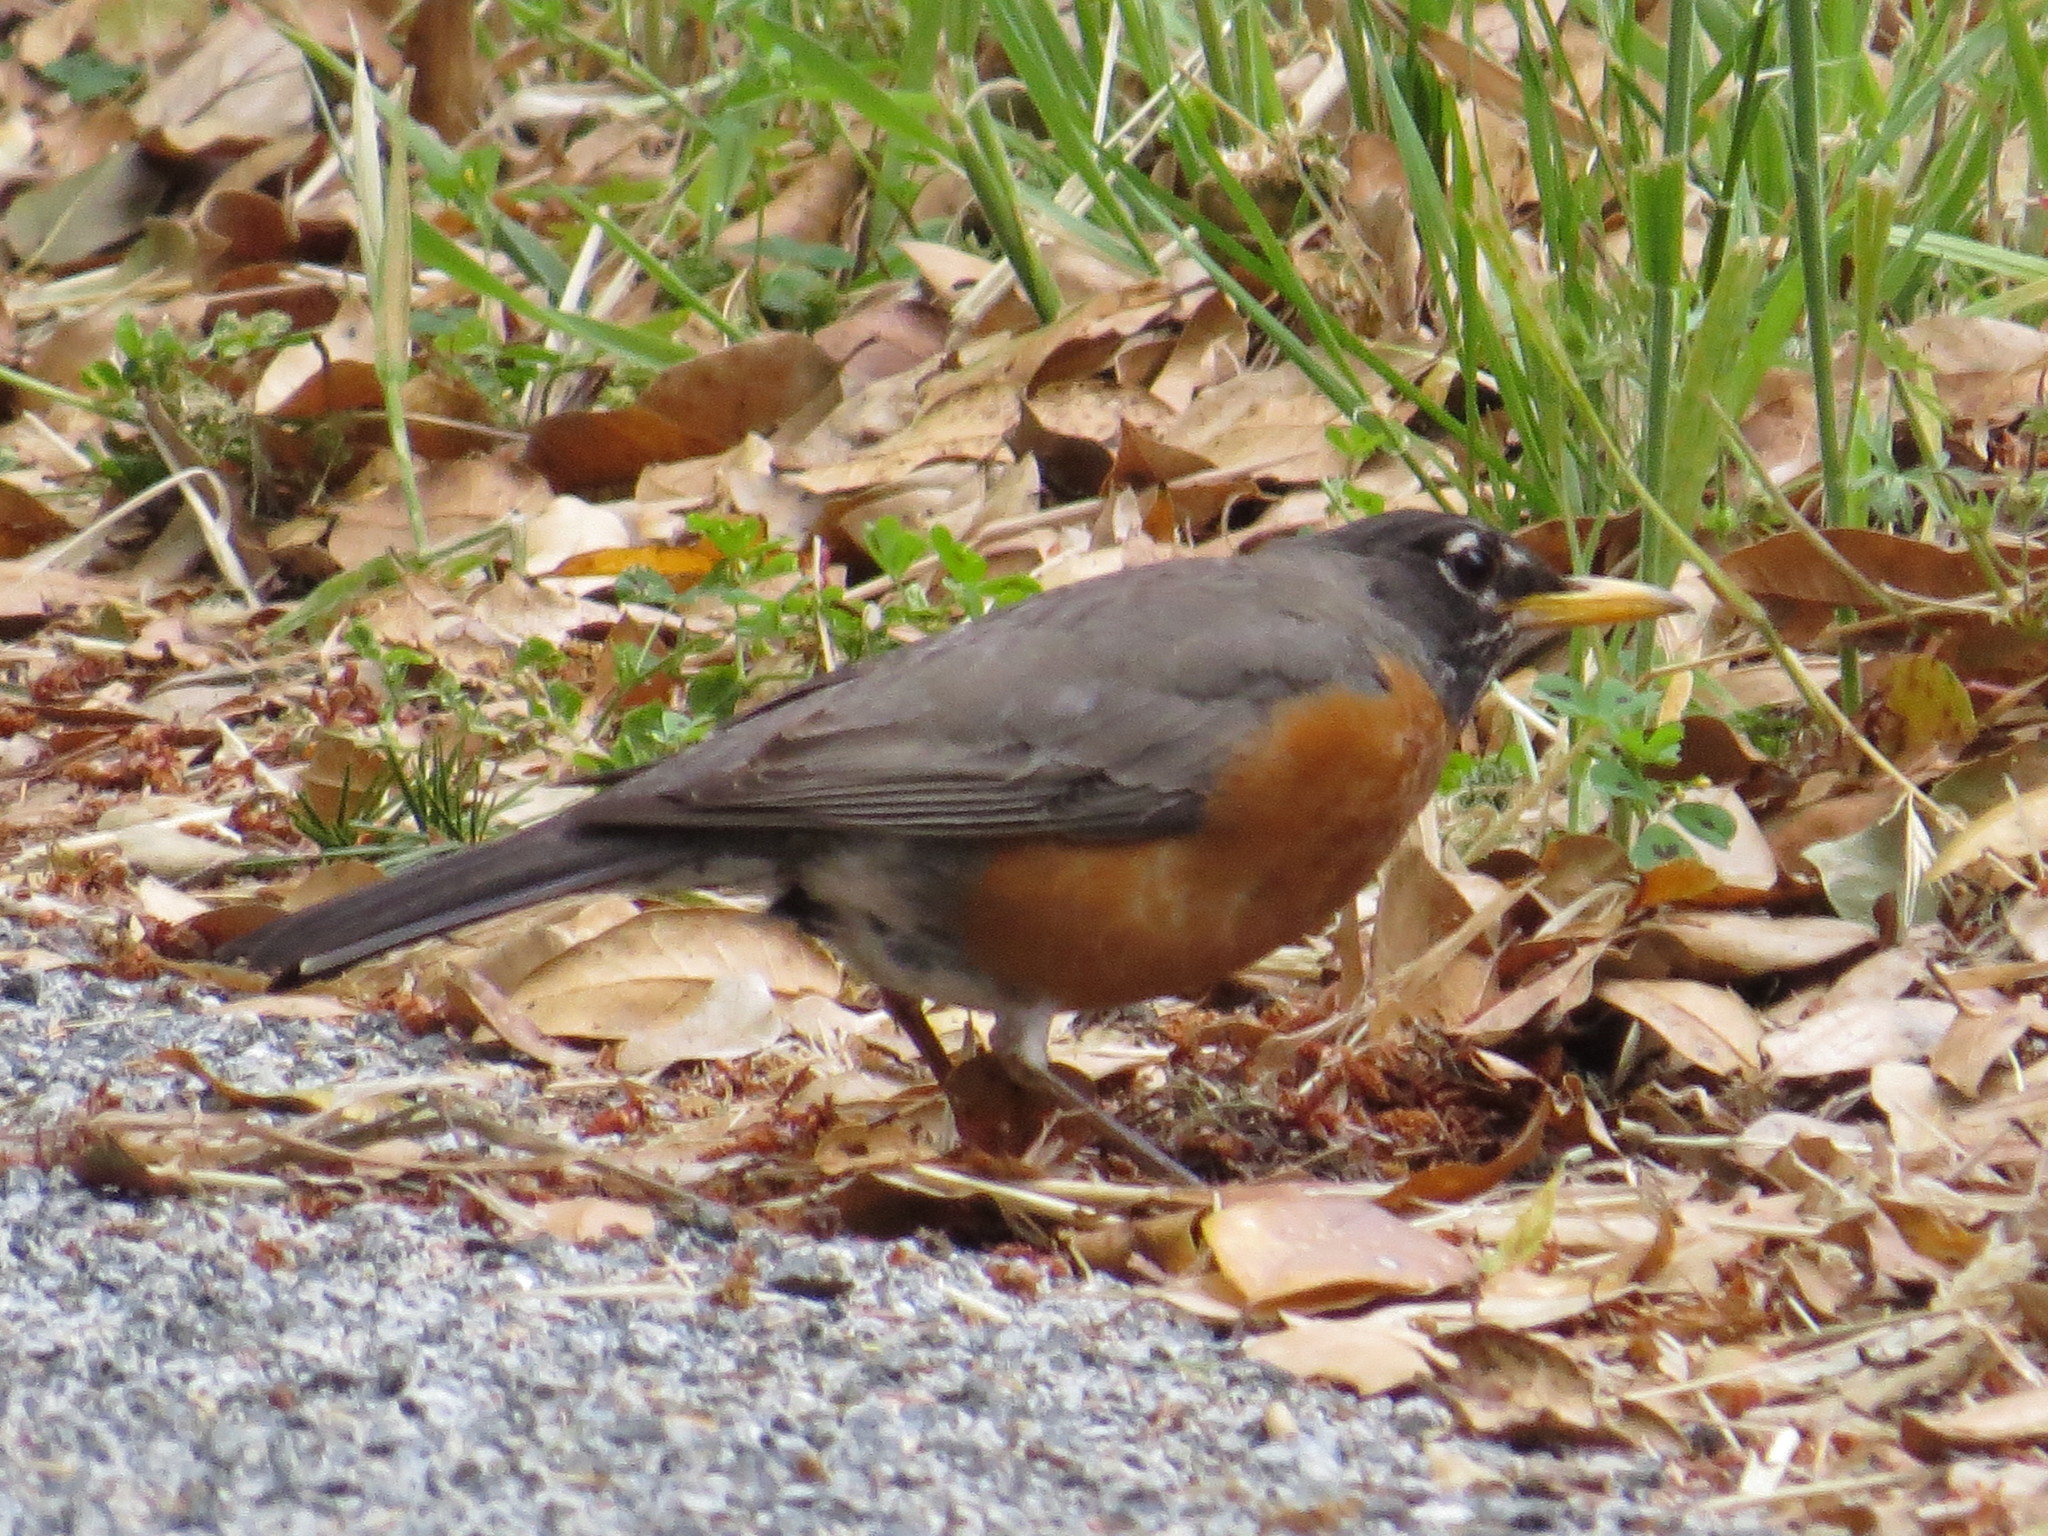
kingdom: Animalia
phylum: Chordata
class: Aves
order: Passeriformes
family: Turdidae
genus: Turdus
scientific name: Turdus migratorius
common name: American robin
